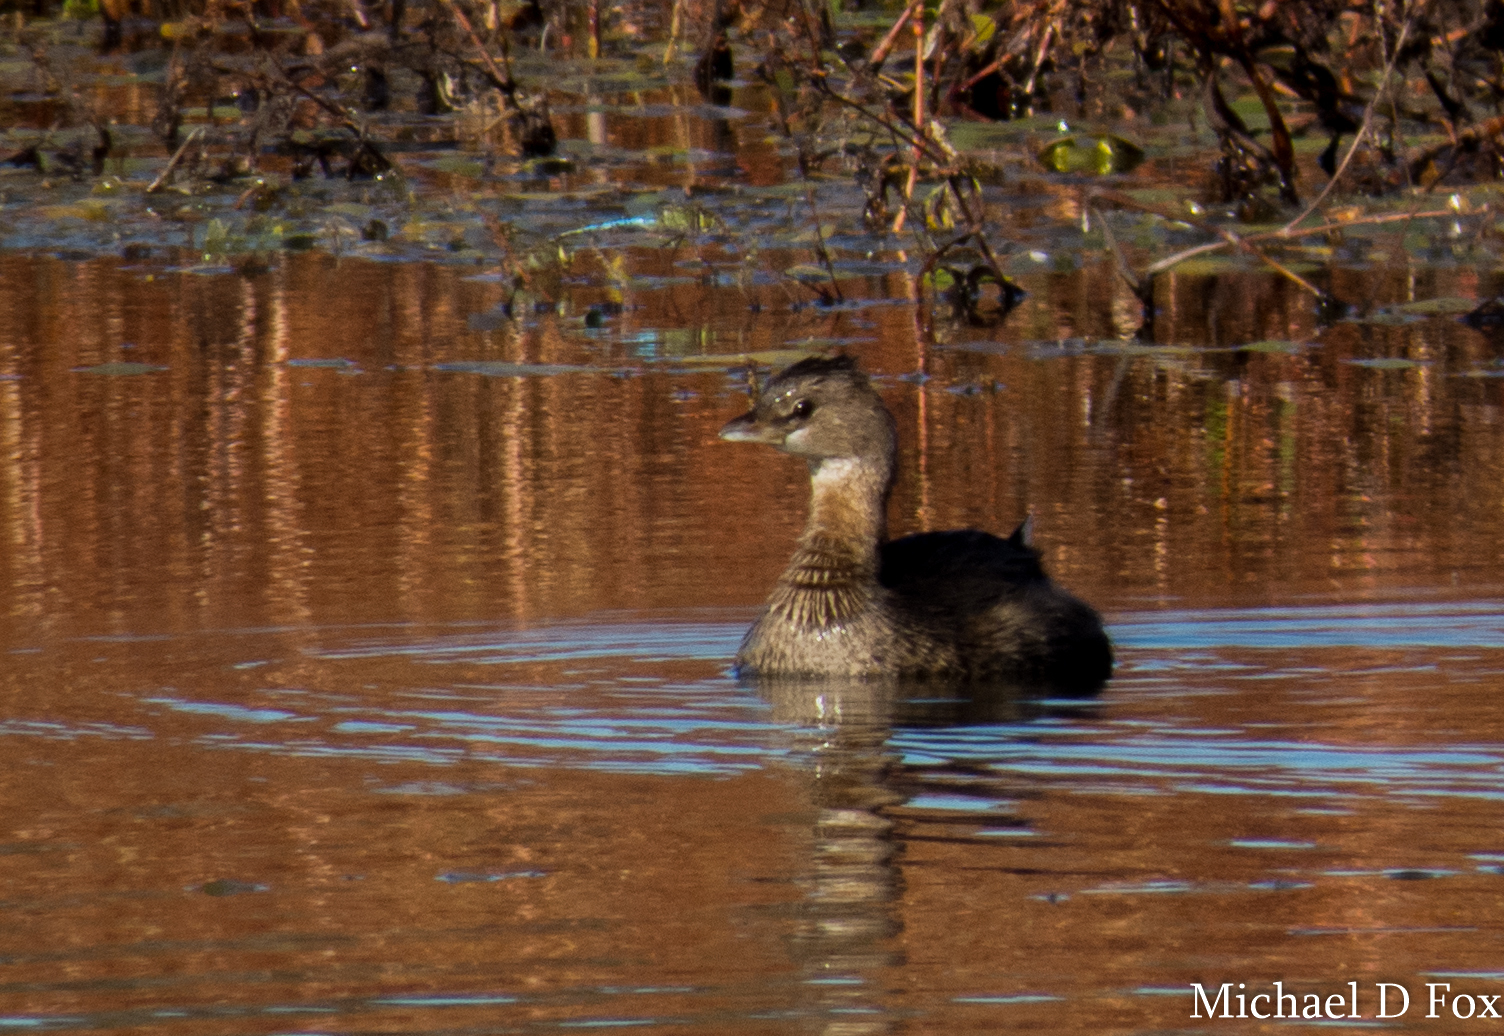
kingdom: Animalia
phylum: Chordata
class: Aves
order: Podicipediformes
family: Podicipedidae
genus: Podilymbus
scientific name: Podilymbus podiceps
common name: Pied-billed grebe
